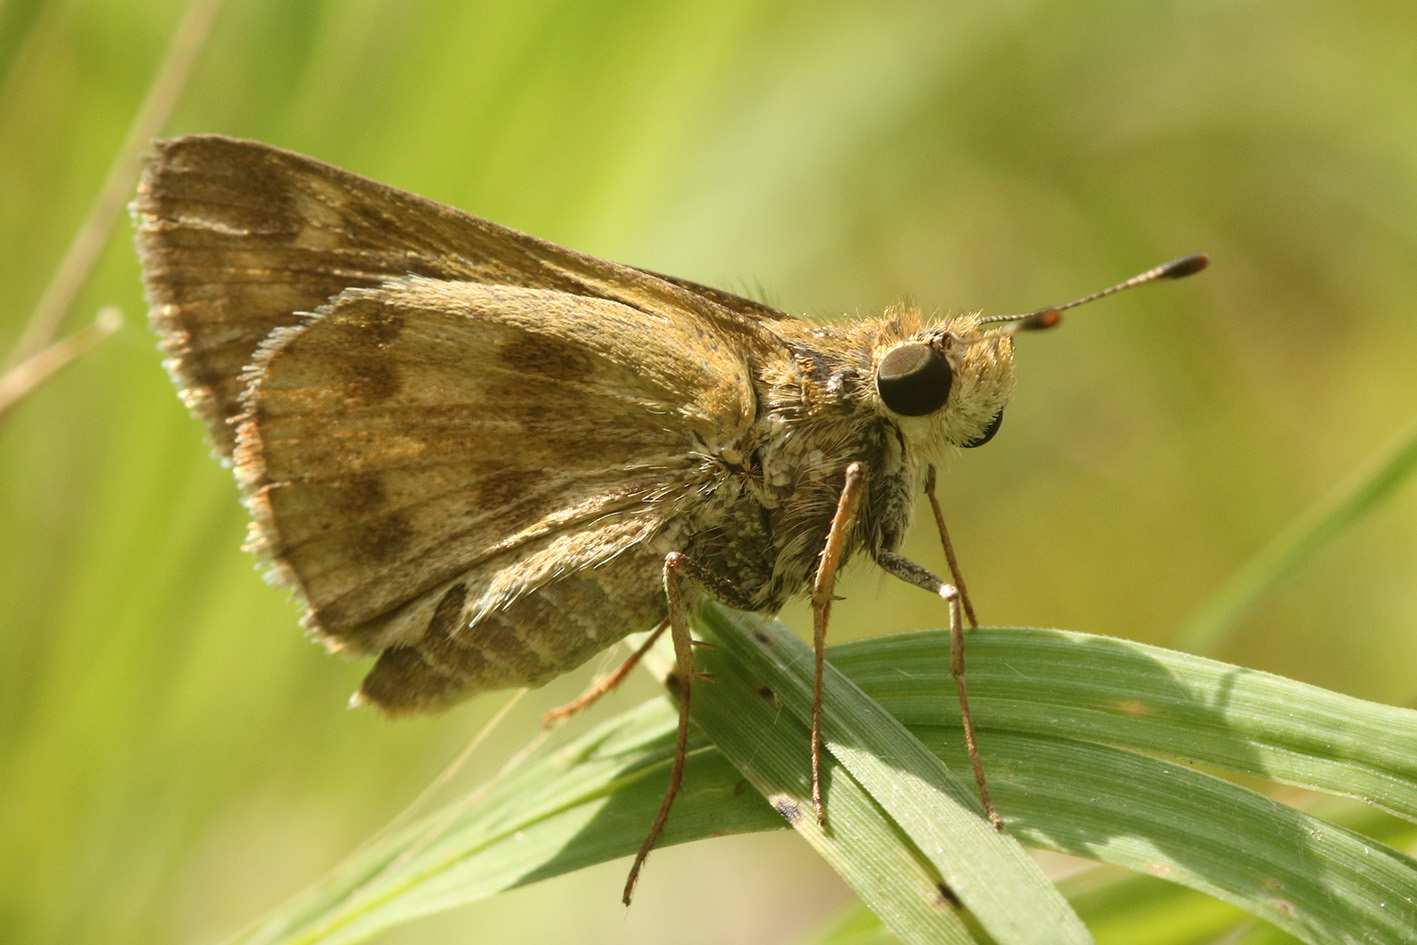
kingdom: Animalia
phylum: Arthropoda
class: Insecta
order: Lepidoptera
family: Hesperiidae
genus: Polites
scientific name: Polites vibex
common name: Whirlabout
